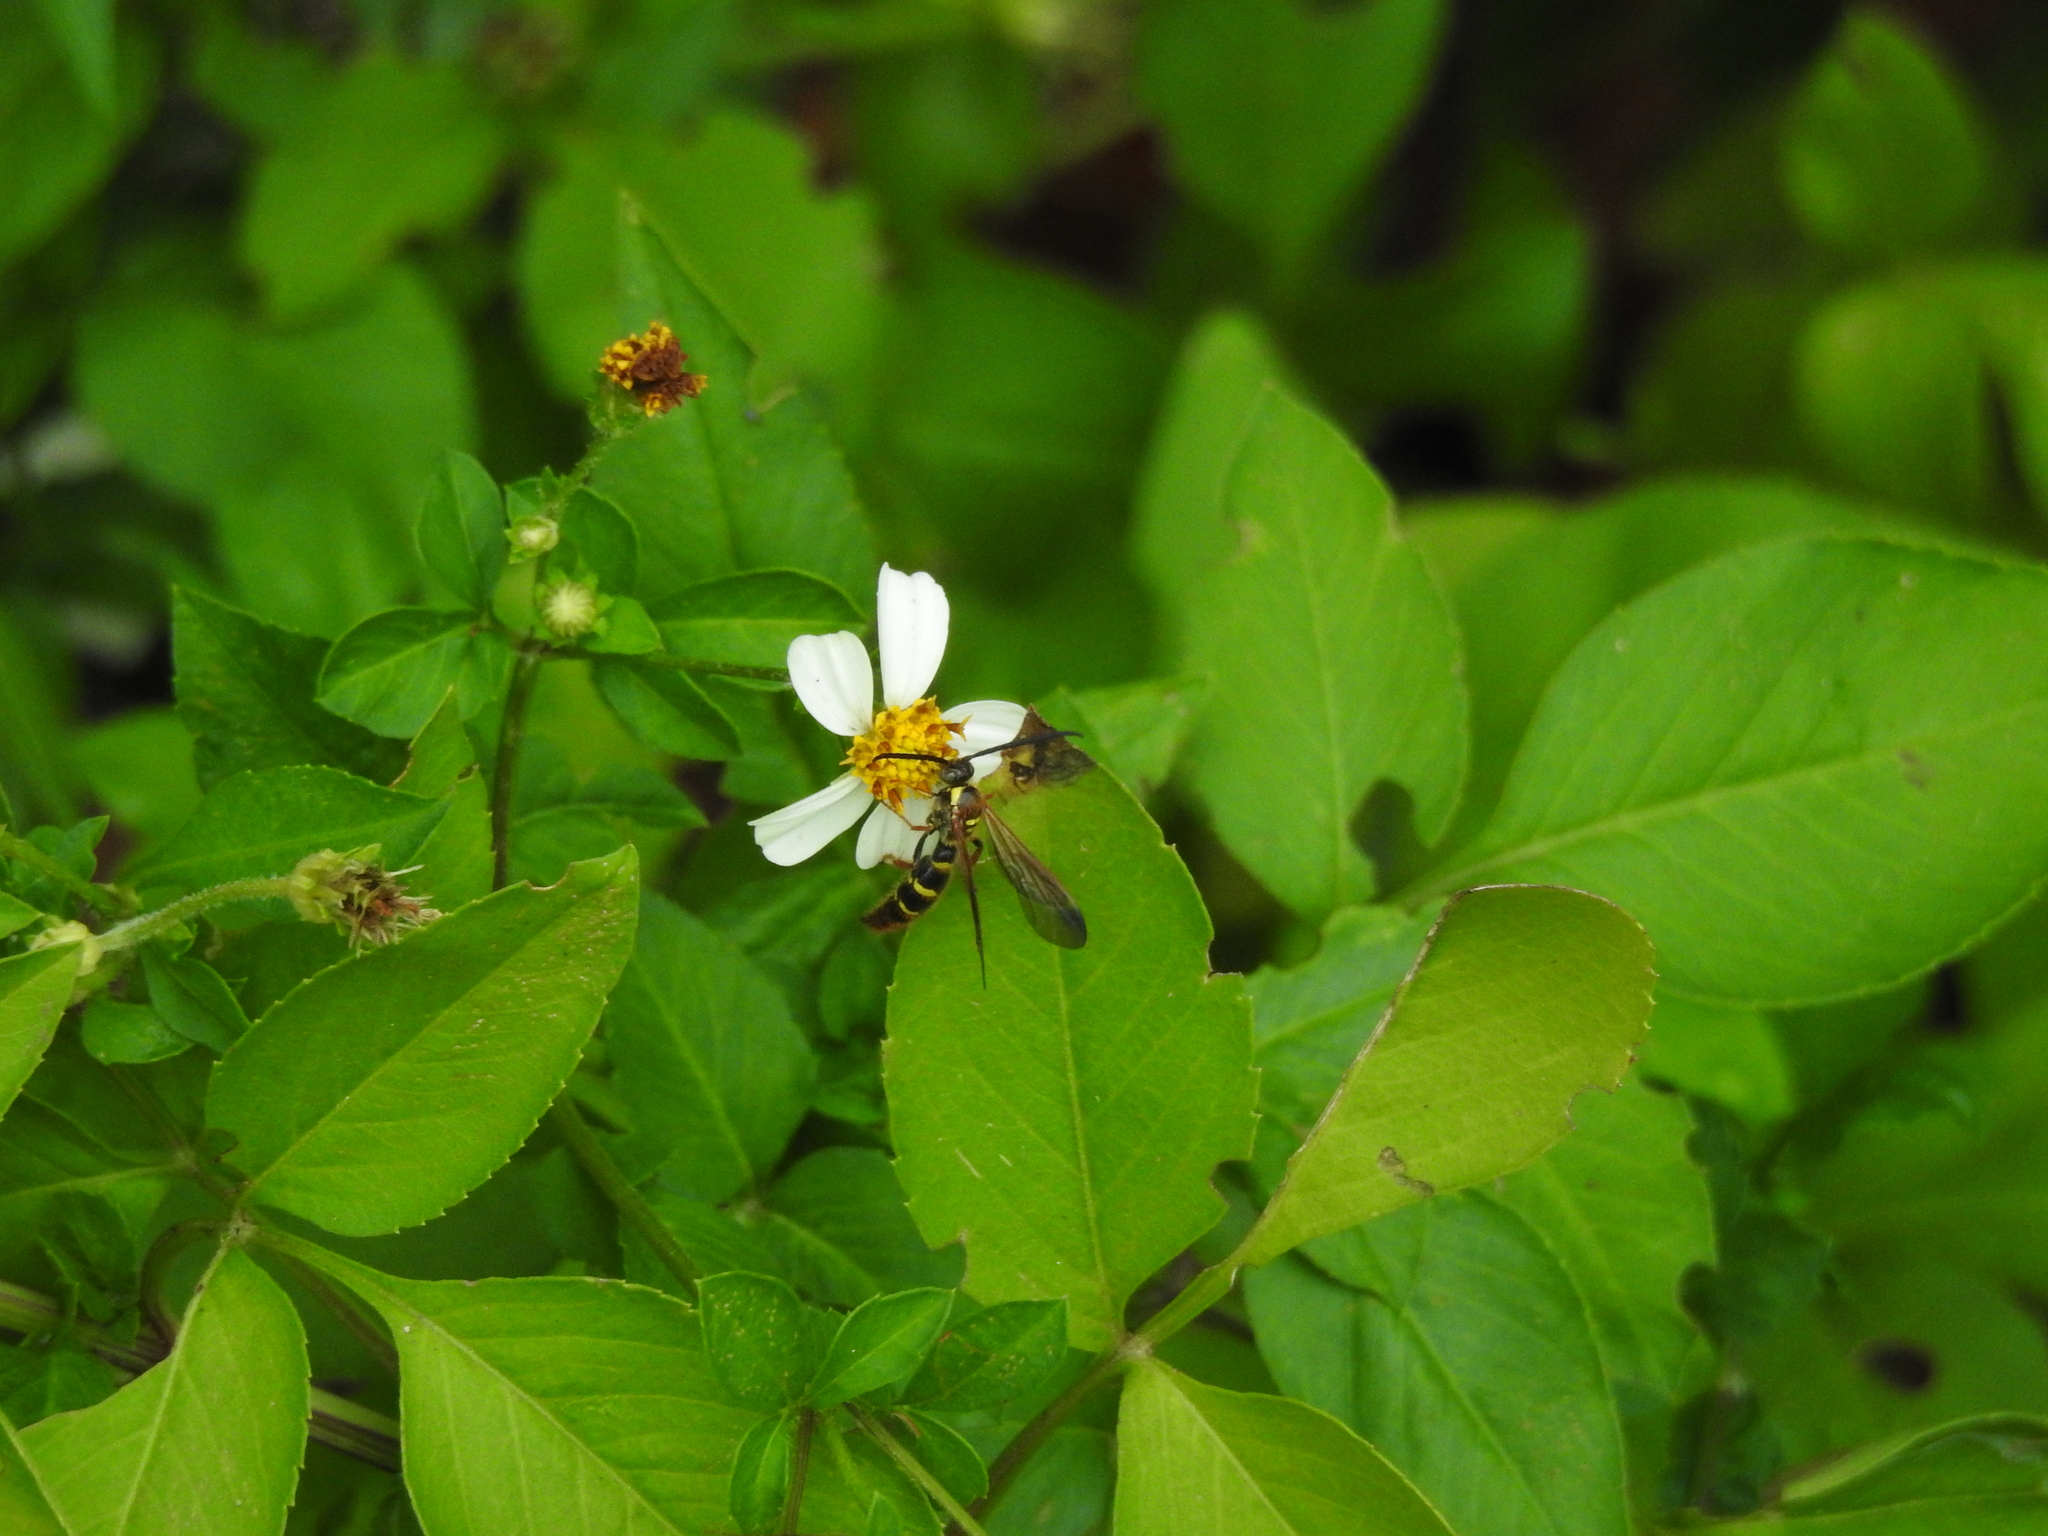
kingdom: Animalia
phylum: Arthropoda
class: Insecta
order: Hymenoptera
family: Scoliidae
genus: Xanthocampsomeris
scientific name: Xanthocampsomeris
